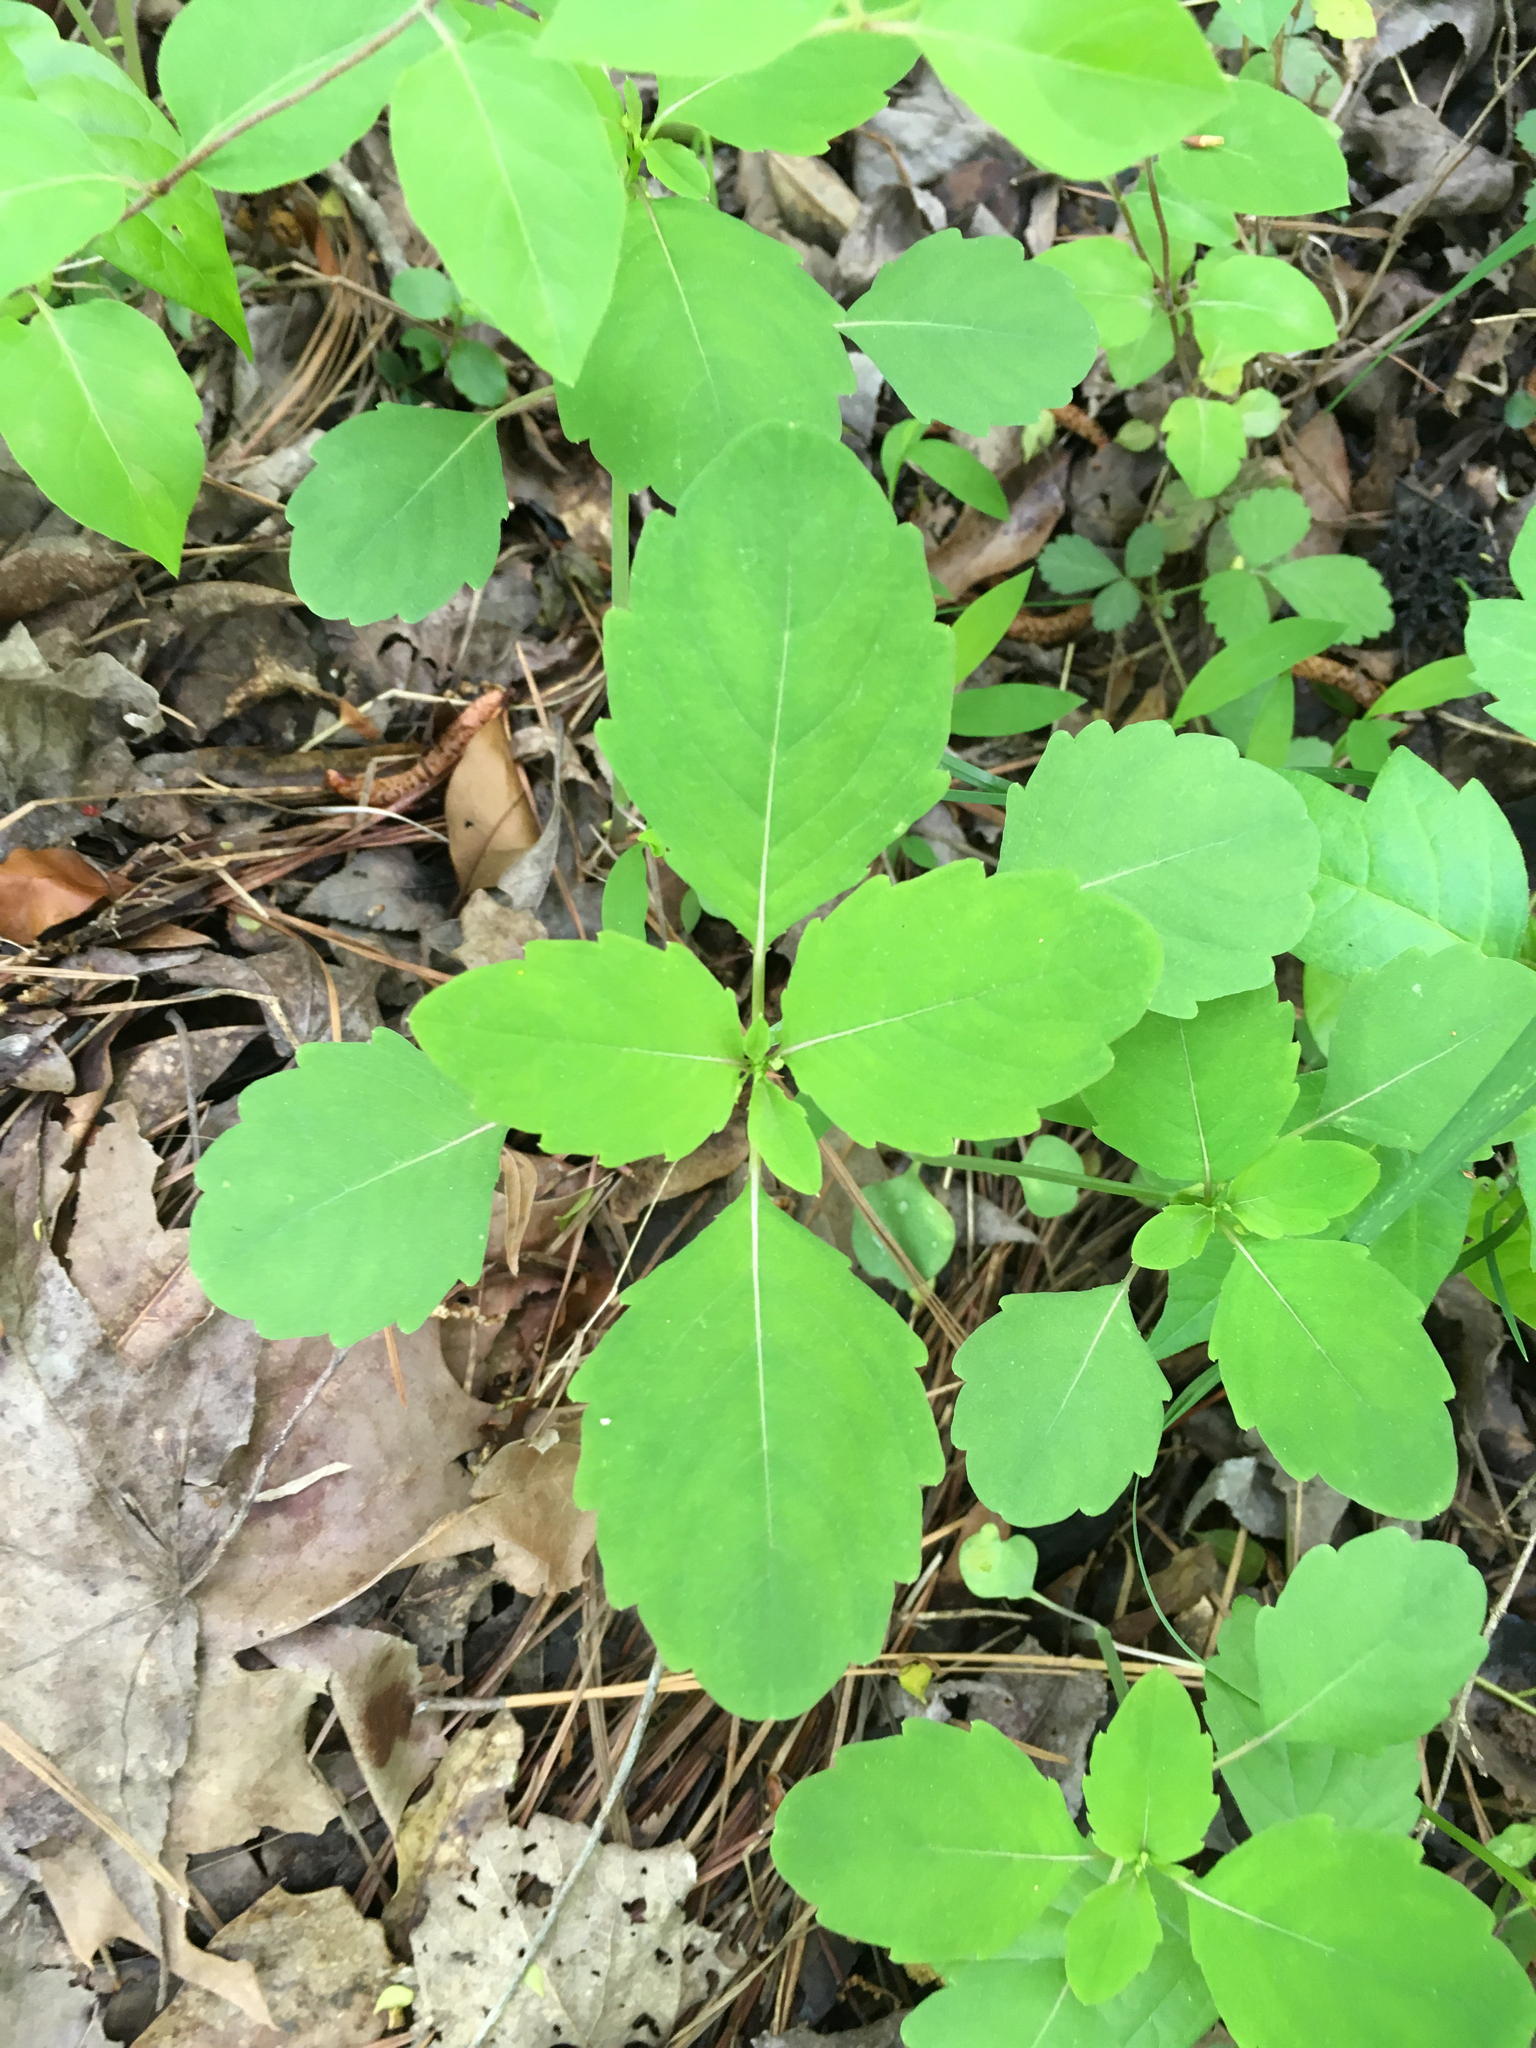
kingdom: Plantae
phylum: Tracheophyta
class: Magnoliopsida
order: Ericales
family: Balsaminaceae
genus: Impatiens
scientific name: Impatiens capensis
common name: Orange balsam
